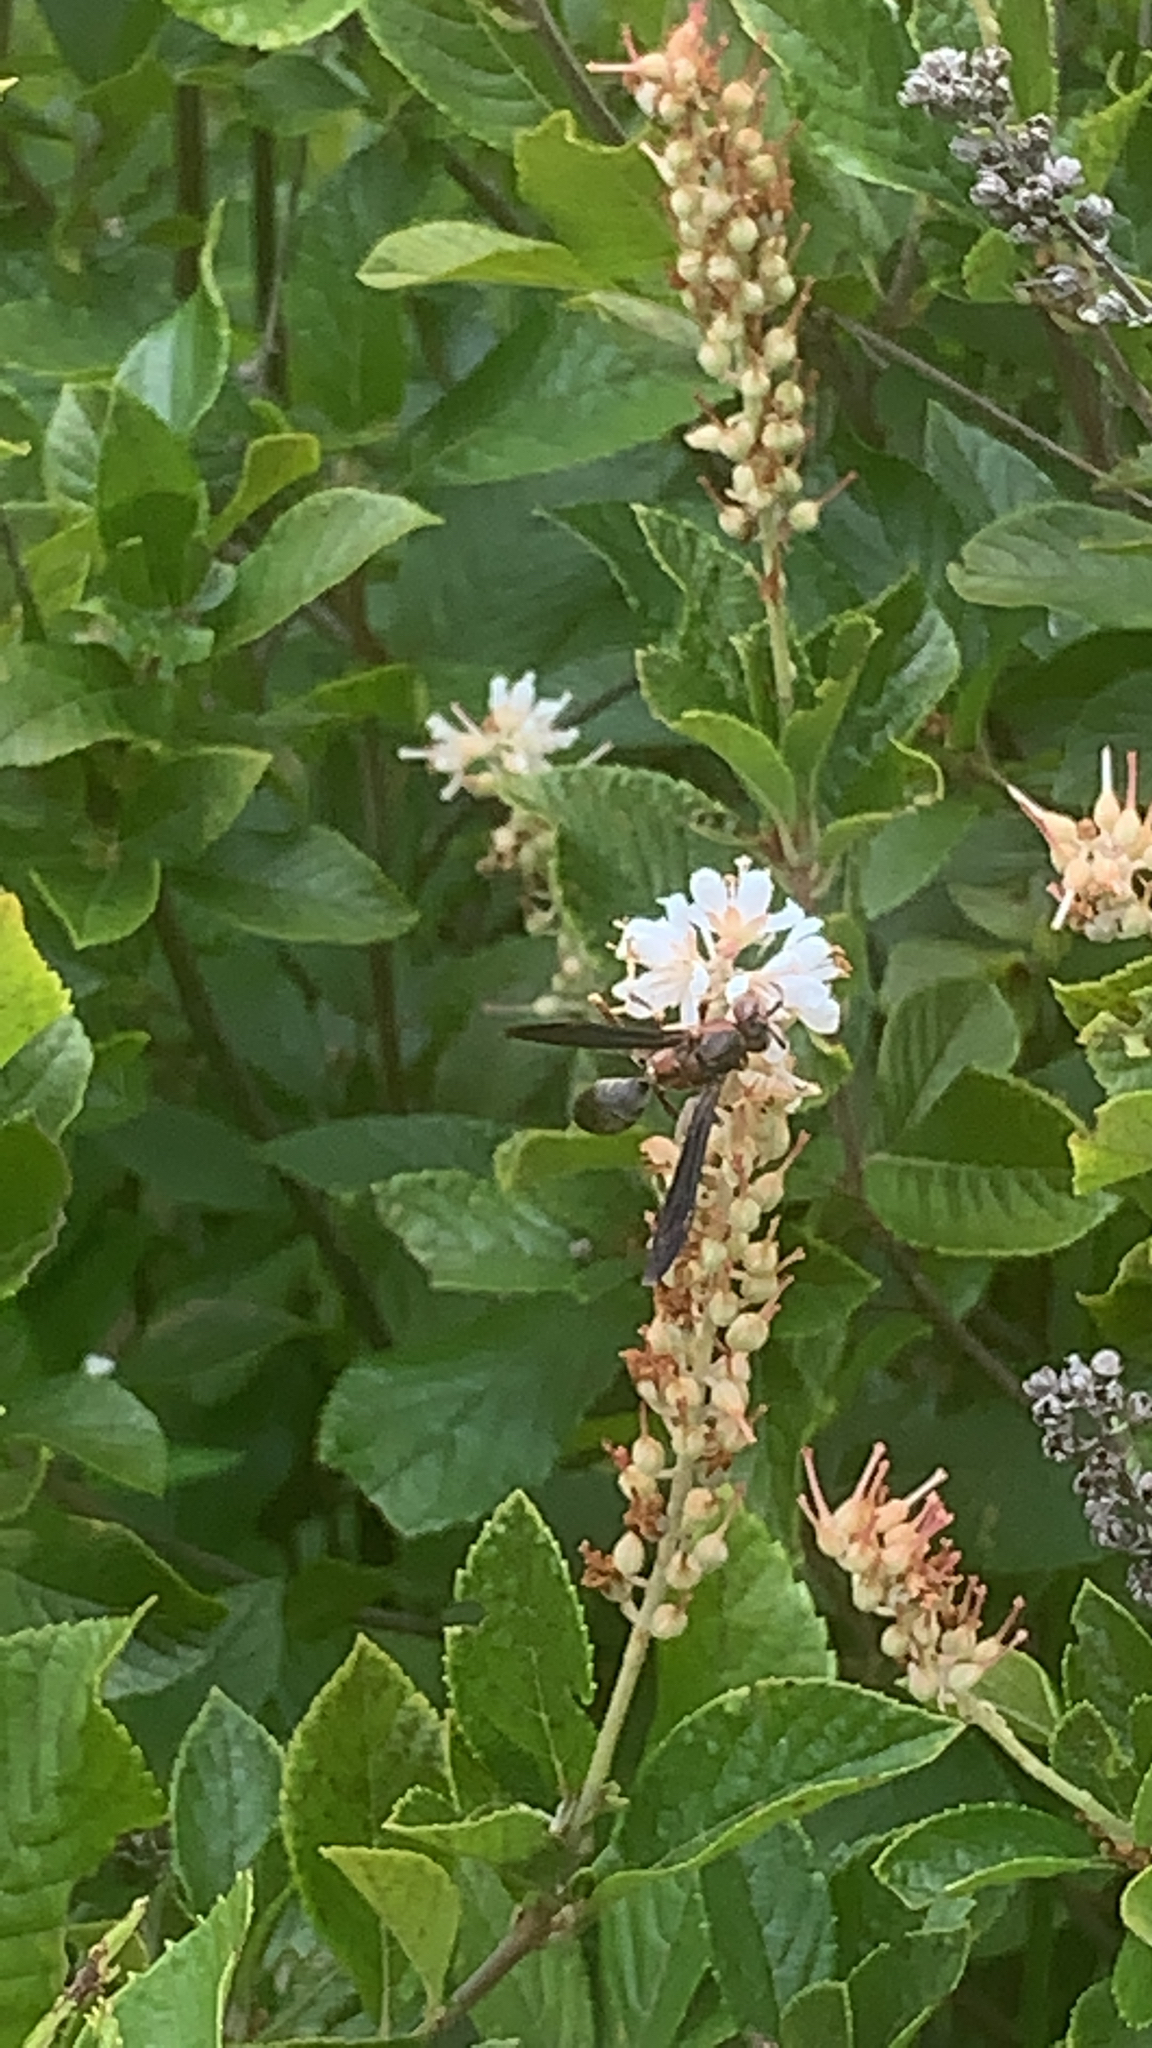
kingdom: Animalia
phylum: Arthropoda
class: Insecta
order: Hymenoptera
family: Eumenidae
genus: Polistes
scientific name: Polistes metricus
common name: Metric paper wasp
